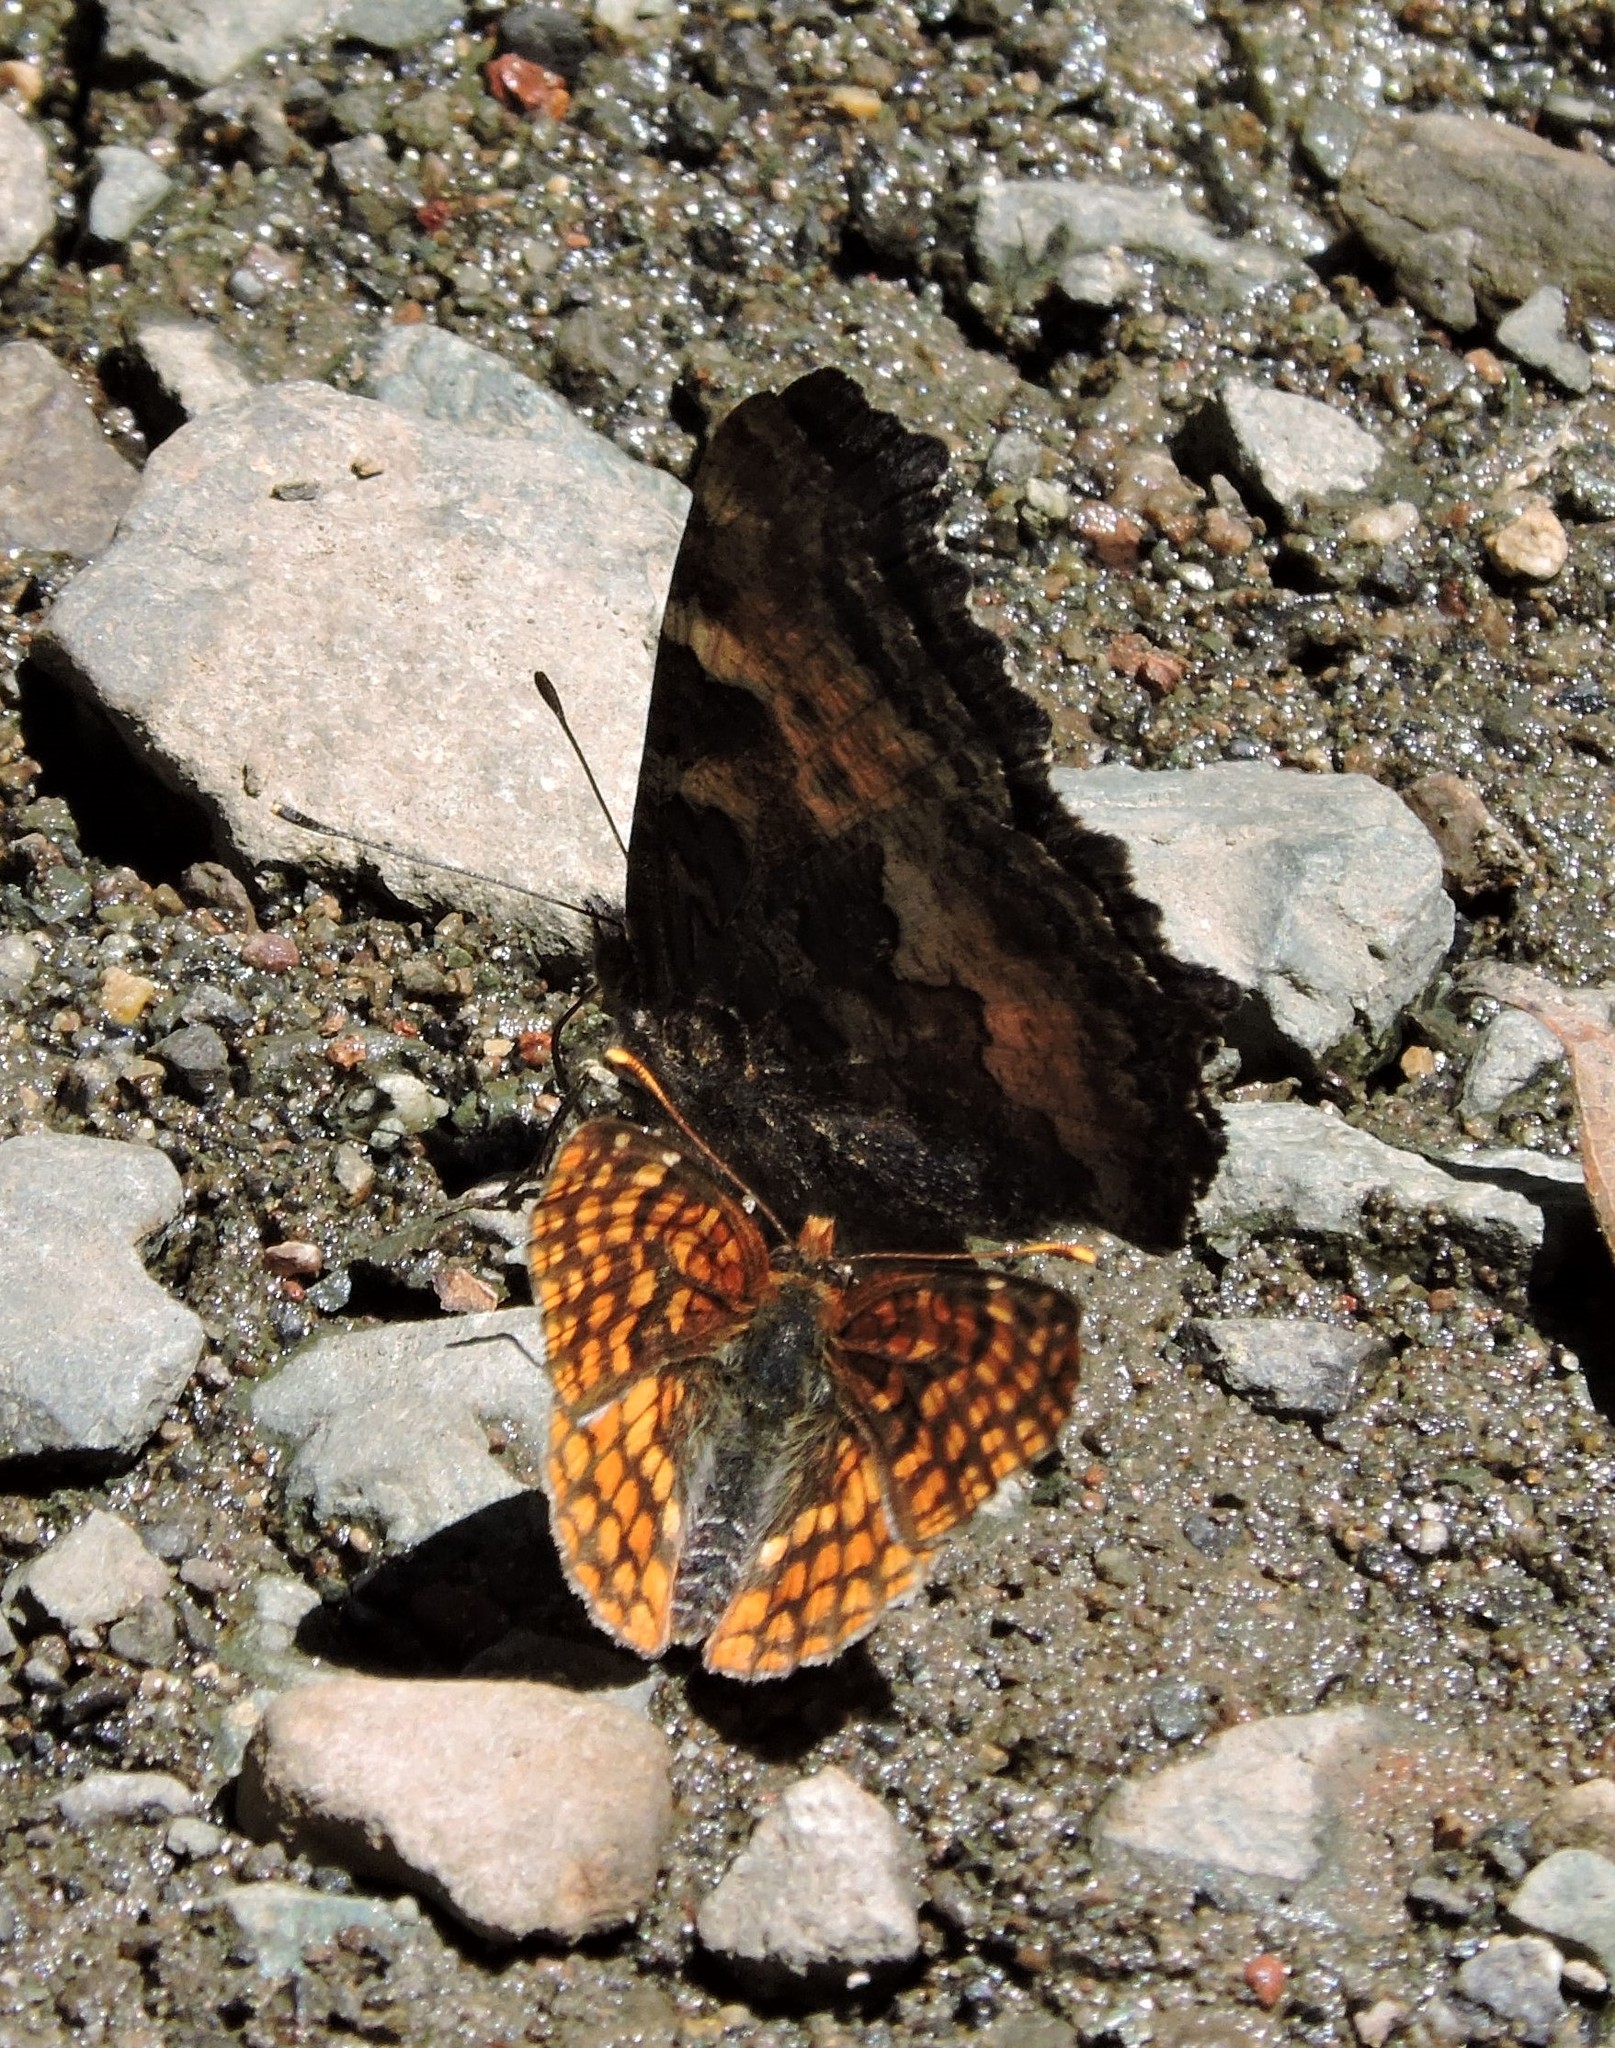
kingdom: Animalia
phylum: Arthropoda
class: Insecta
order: Lepidoptera
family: Nymphalidae
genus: Chlosyne
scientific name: Chlosyne palla
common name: Northern checkerspot
